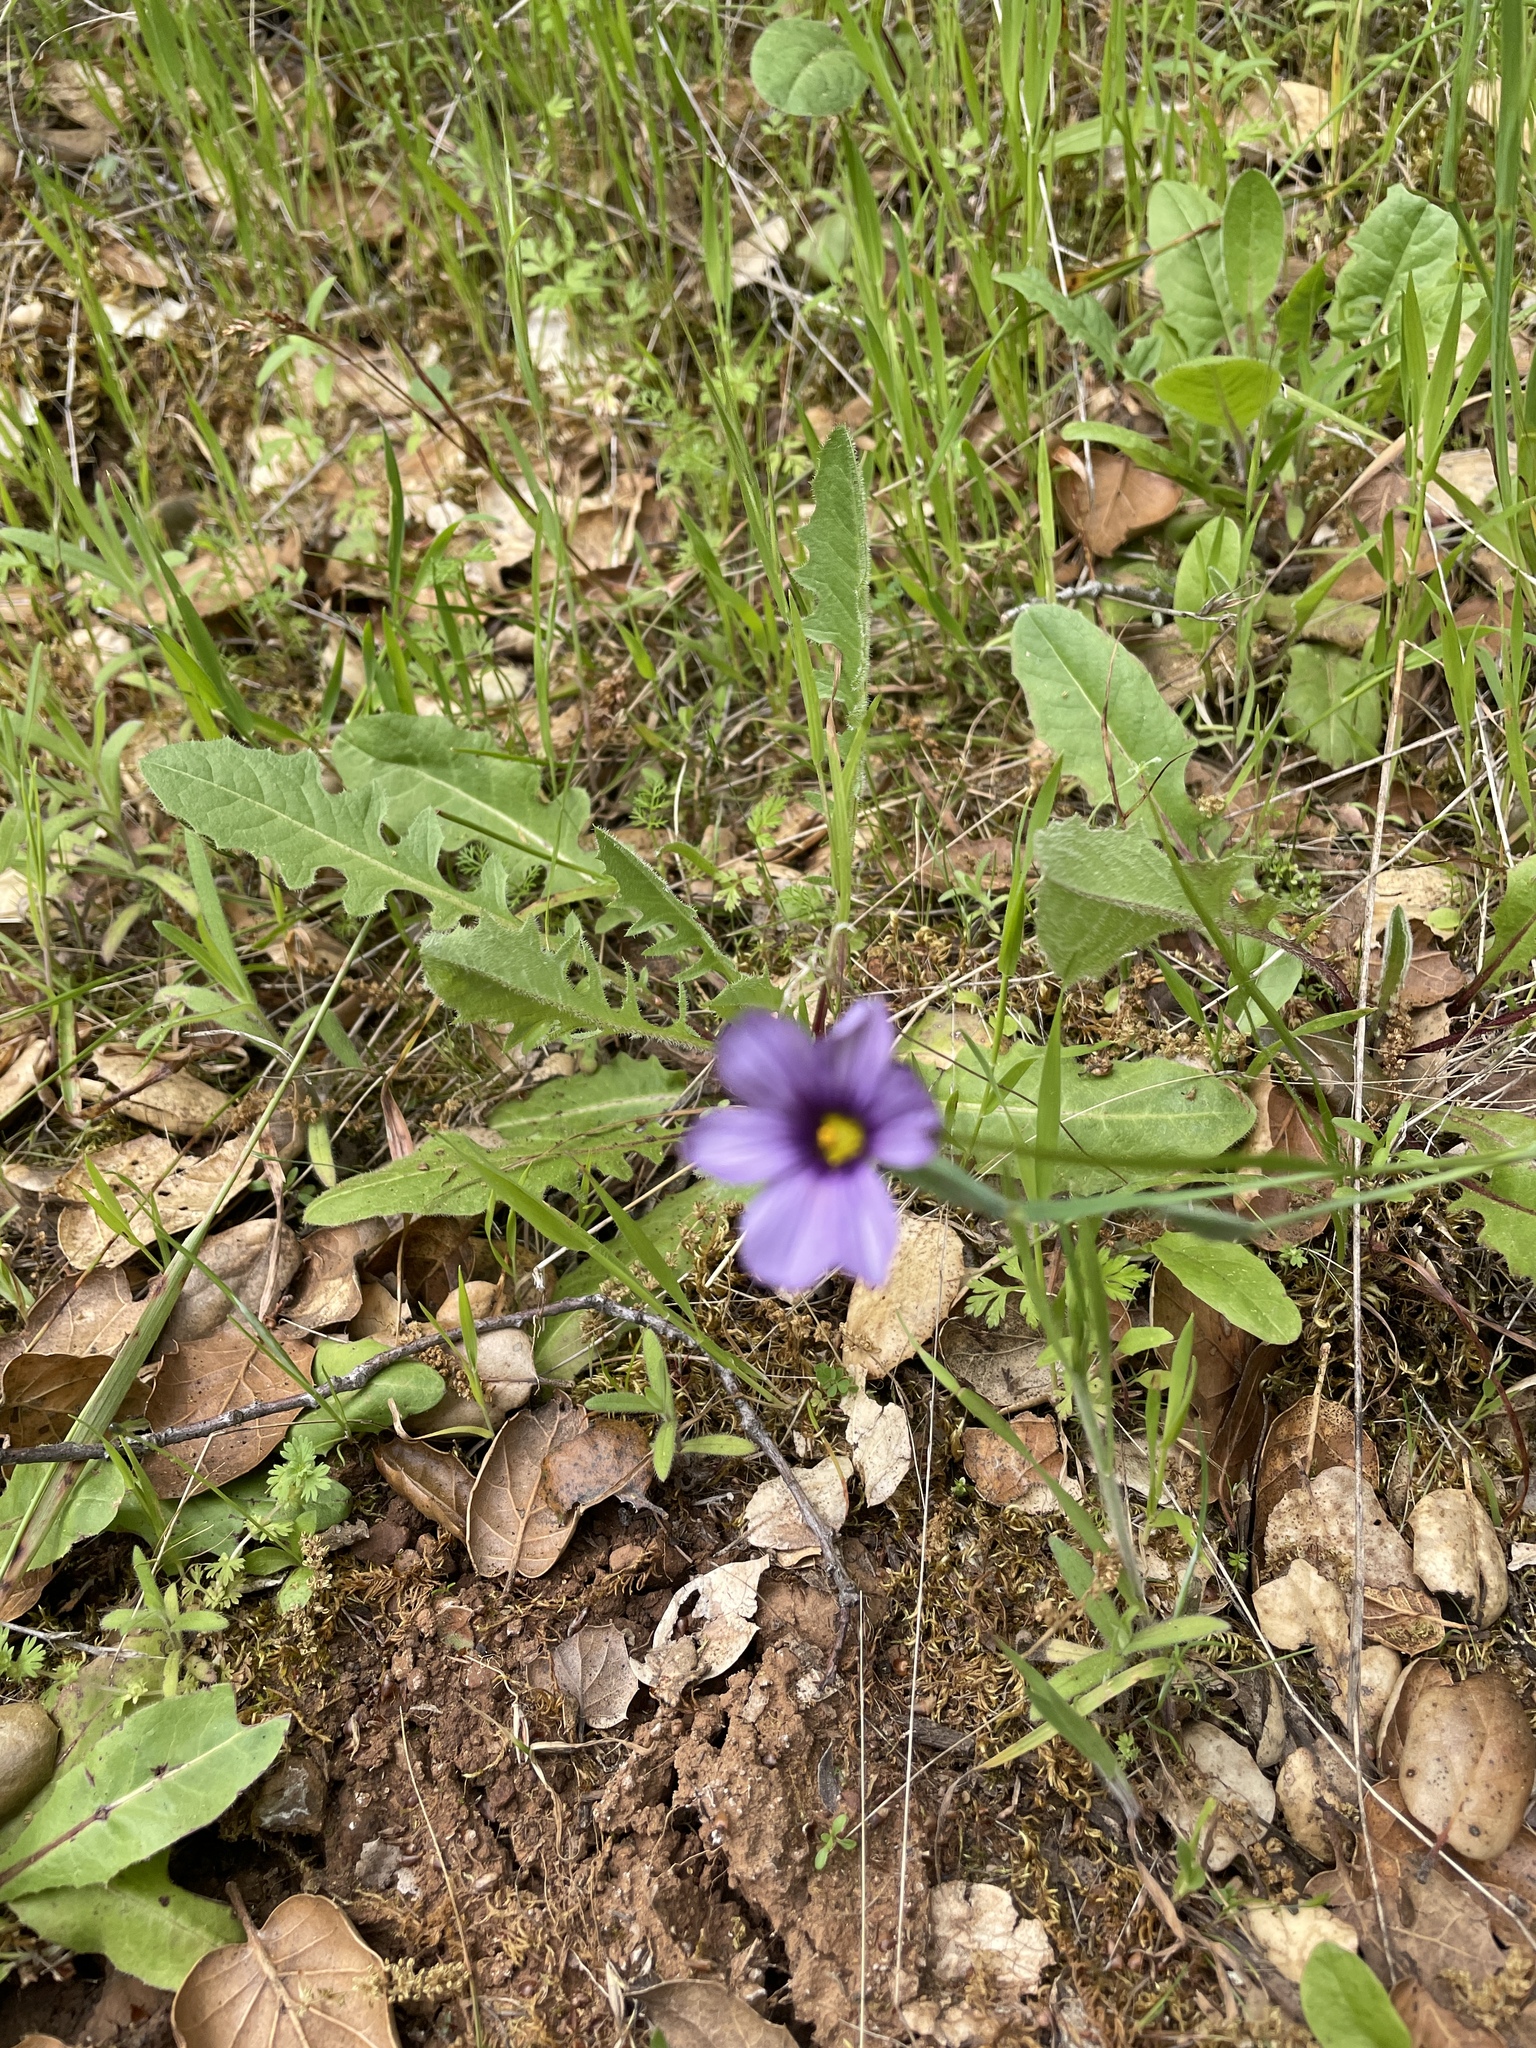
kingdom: Plantae
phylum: Tracheophyta
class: Liliopsida
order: Asparagales
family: Iridaceae
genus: Sisyrinchium
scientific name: Sisyrinchium bellum
